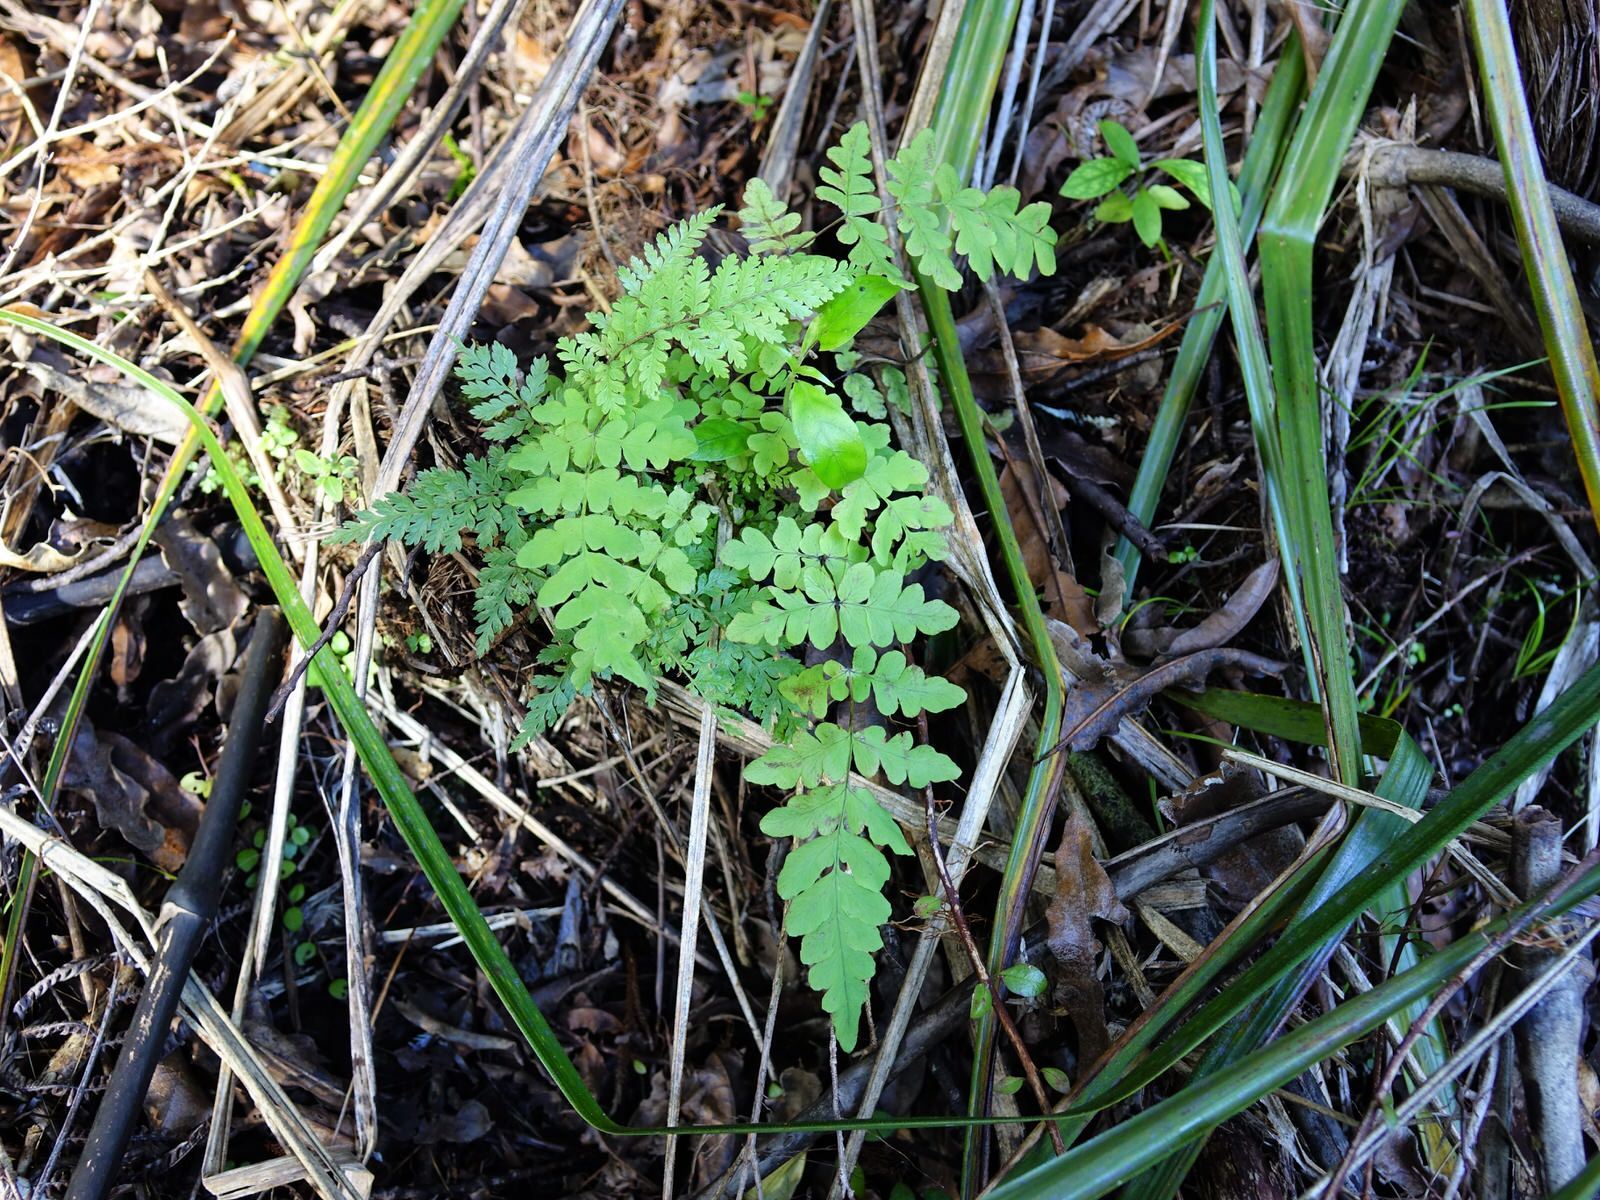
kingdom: Plantae
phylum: Tracheophyta
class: Polypodiopsida
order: Polypodiales
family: Dennstaedtiaceae
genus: Histiopteris
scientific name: Histiopteris incisa
